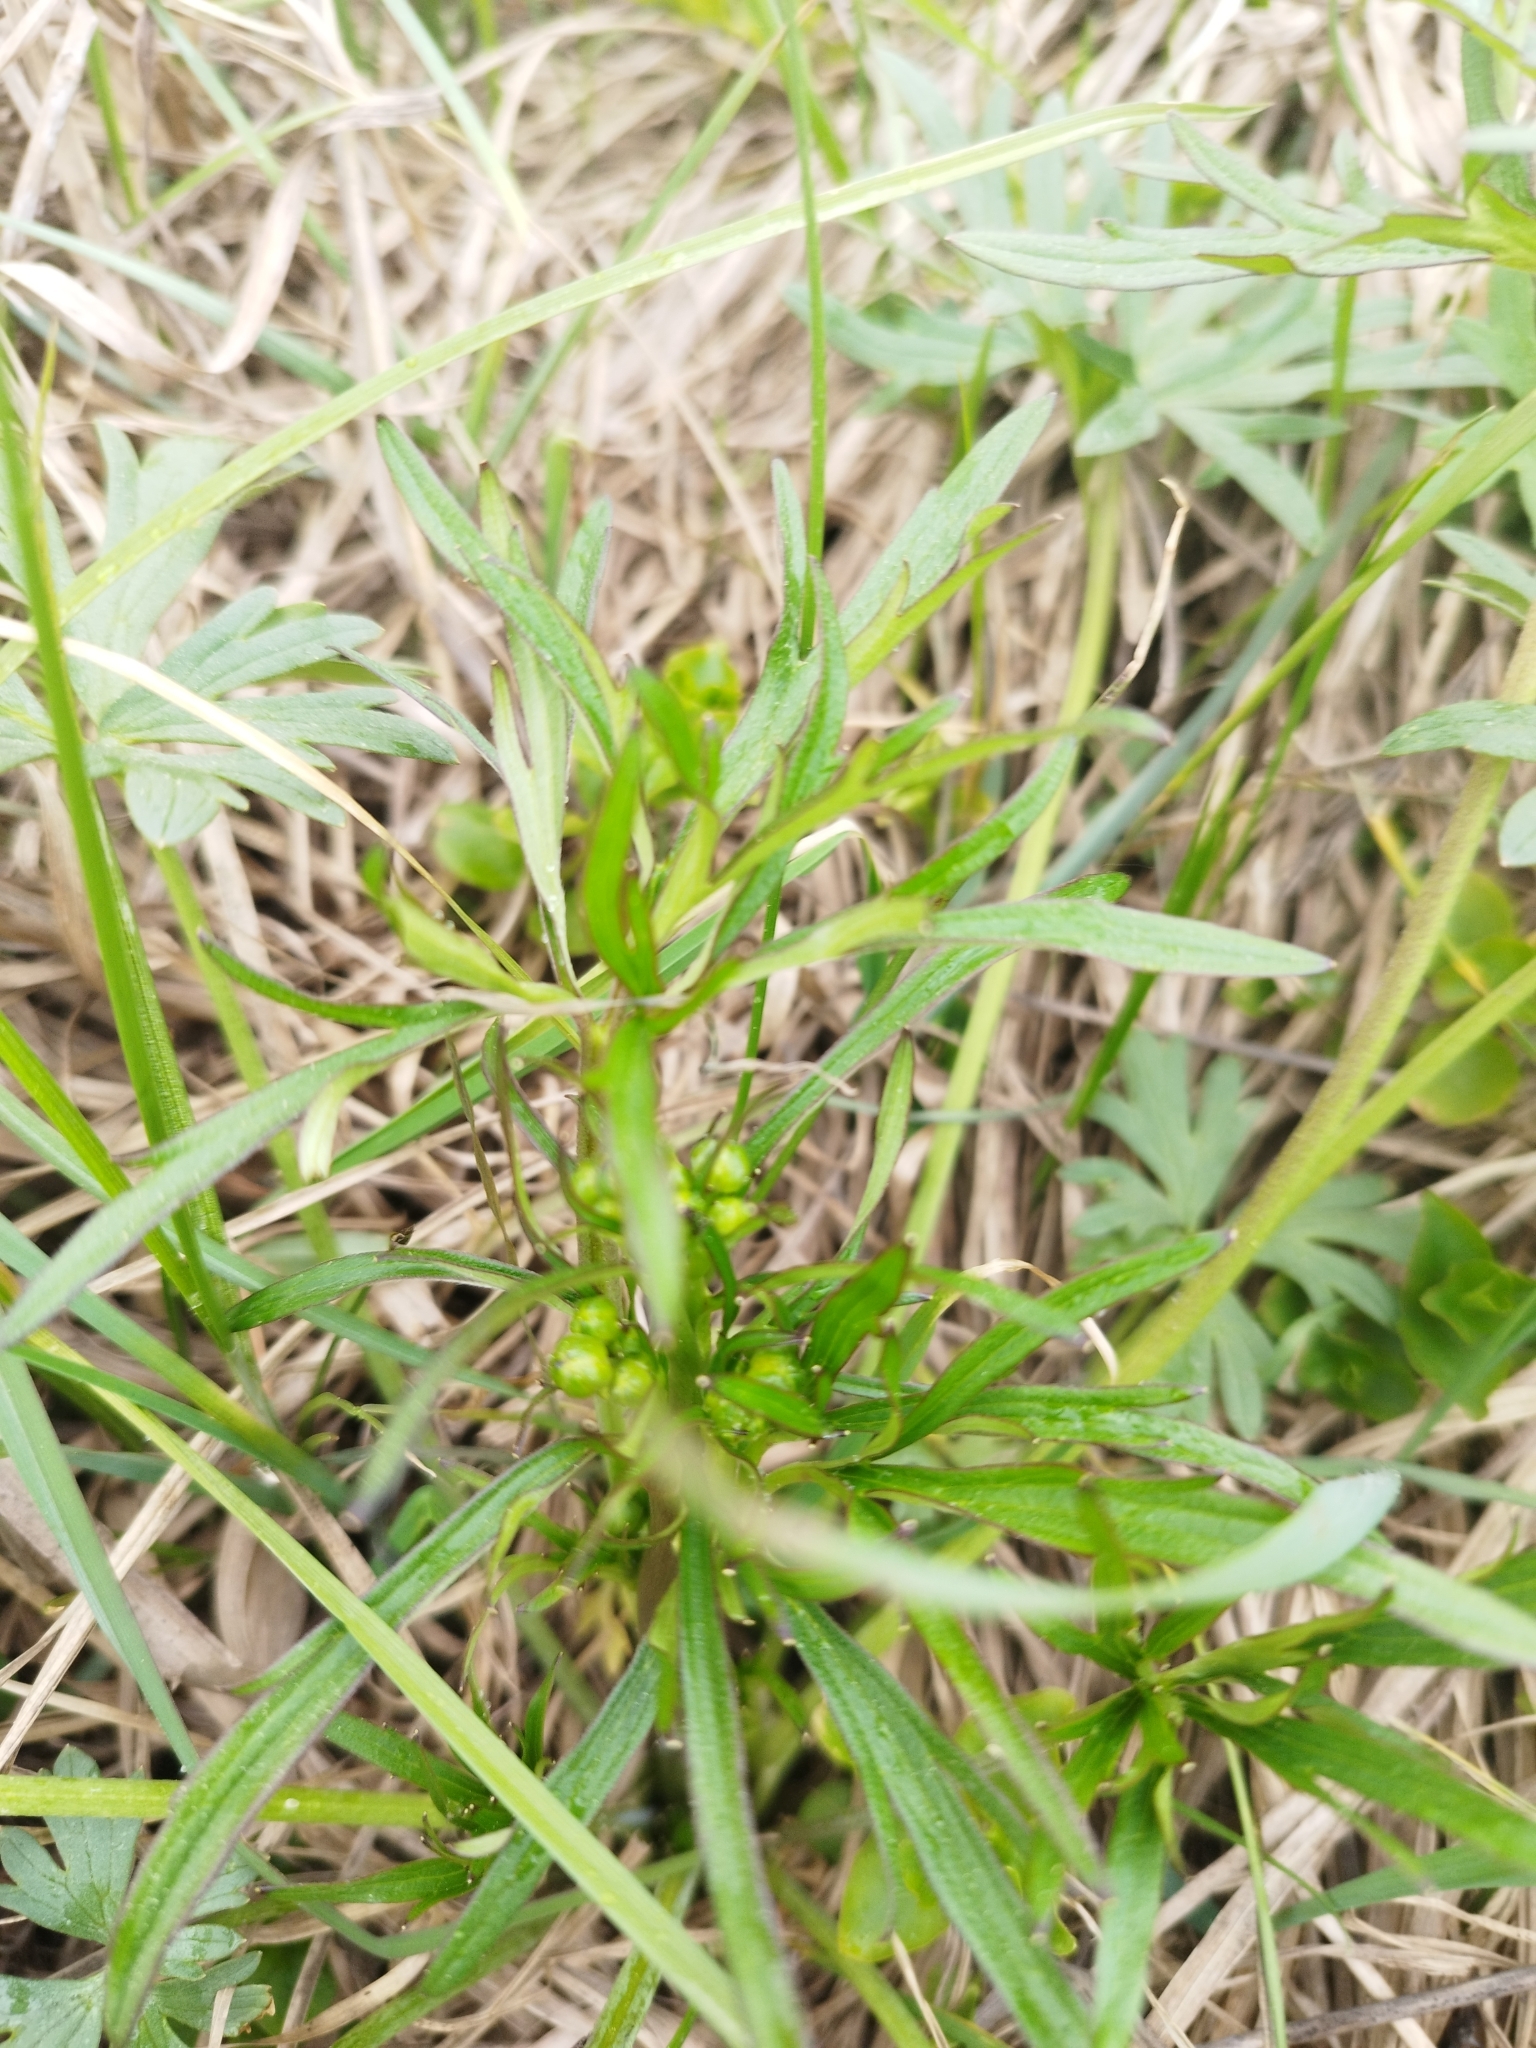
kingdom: Plantae
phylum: Tracheophyta
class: Magnoliopsida
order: Ranunculales
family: Ranunculaceae
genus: Ranunculus
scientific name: Ranunculus acris
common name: Meadow buttercup
